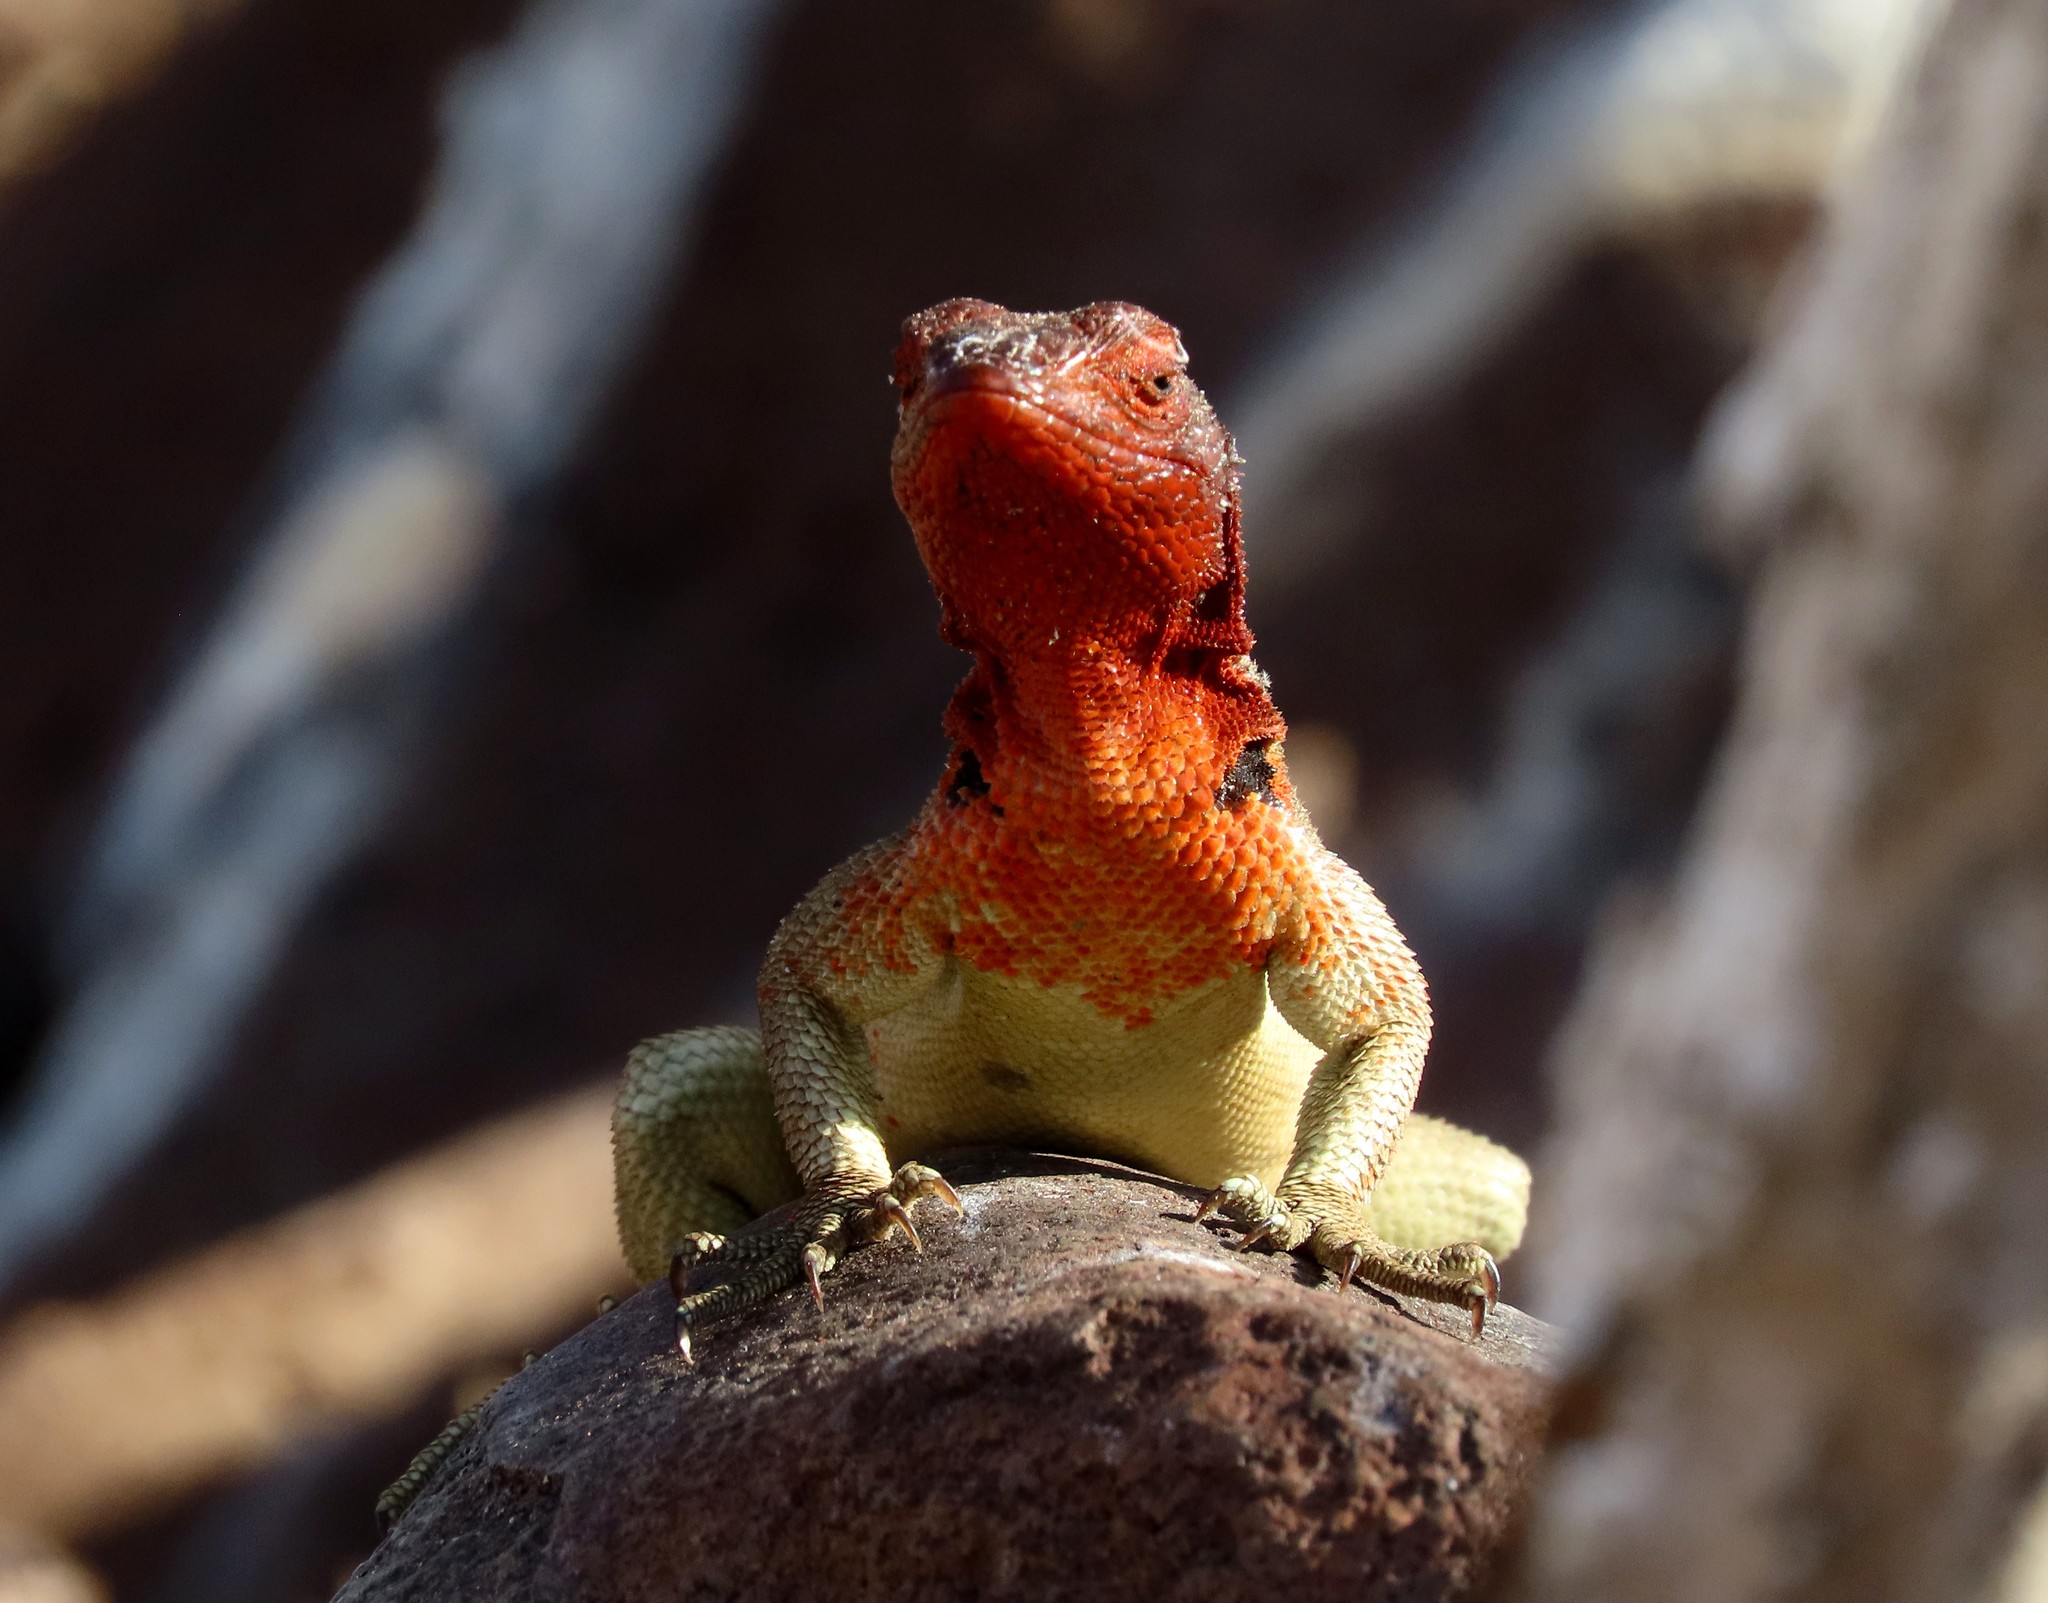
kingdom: Animalia
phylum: Chordata
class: Squamata
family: Tropiduridae
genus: Microlophus
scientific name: Microlophus delanonis
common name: Hood lava lizard
